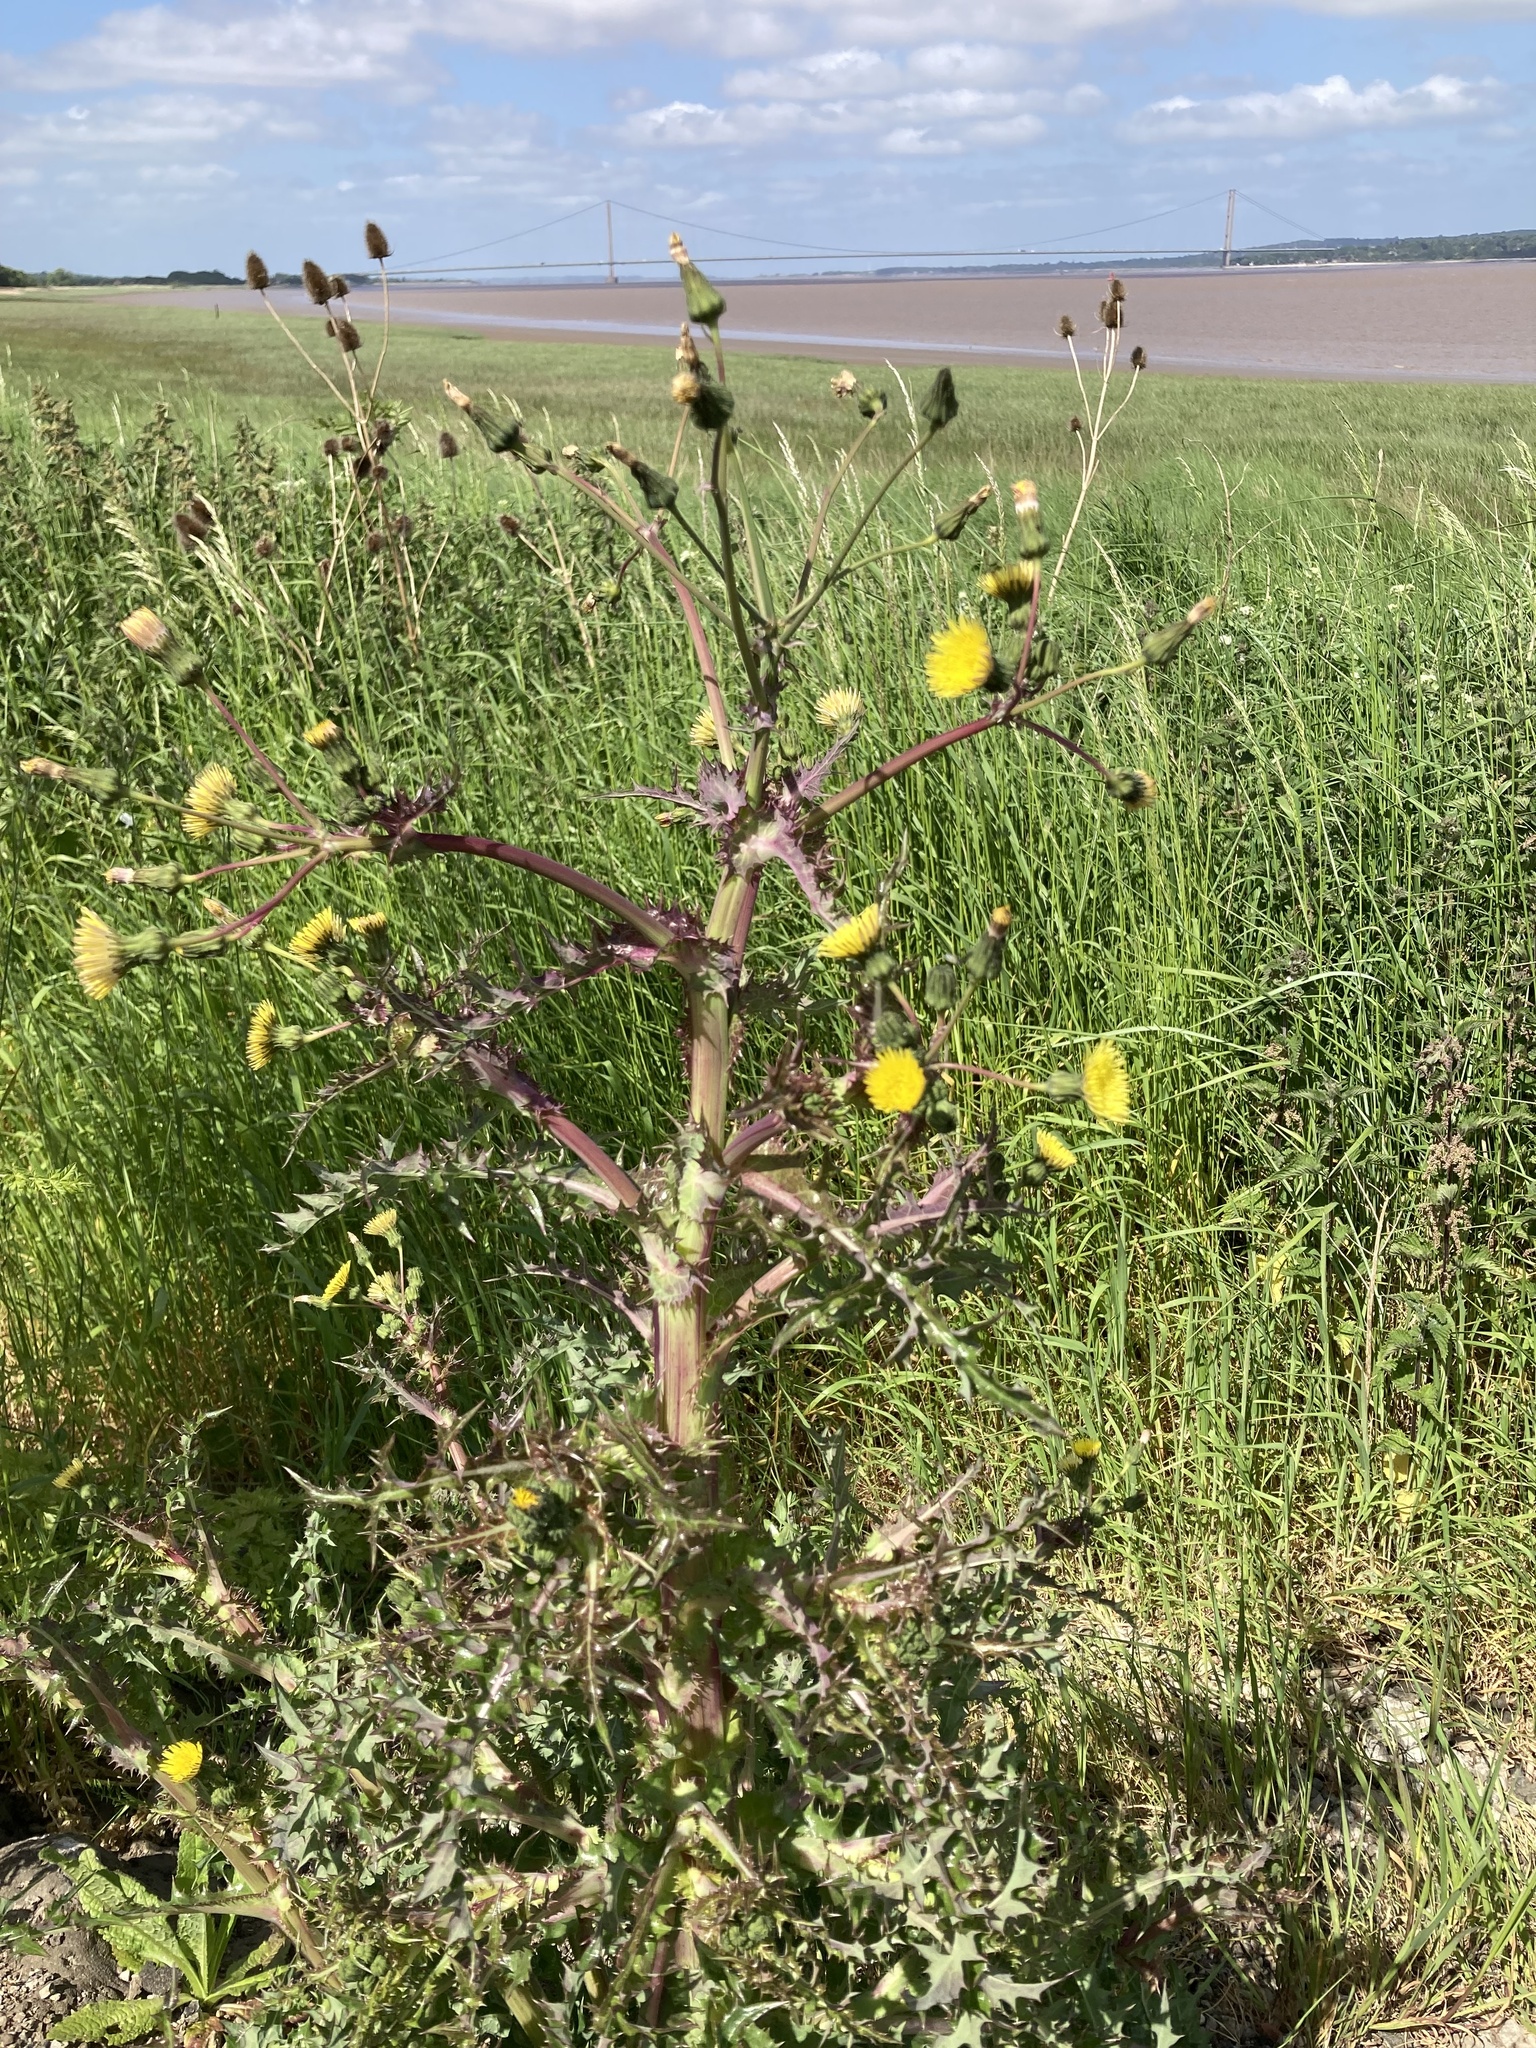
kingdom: Plantae
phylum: Tracheophyta
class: Magnoliopsida
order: Asterales
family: Asteraceae
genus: Sonchus
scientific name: Sonchus asper
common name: Prickly sow-thistle
